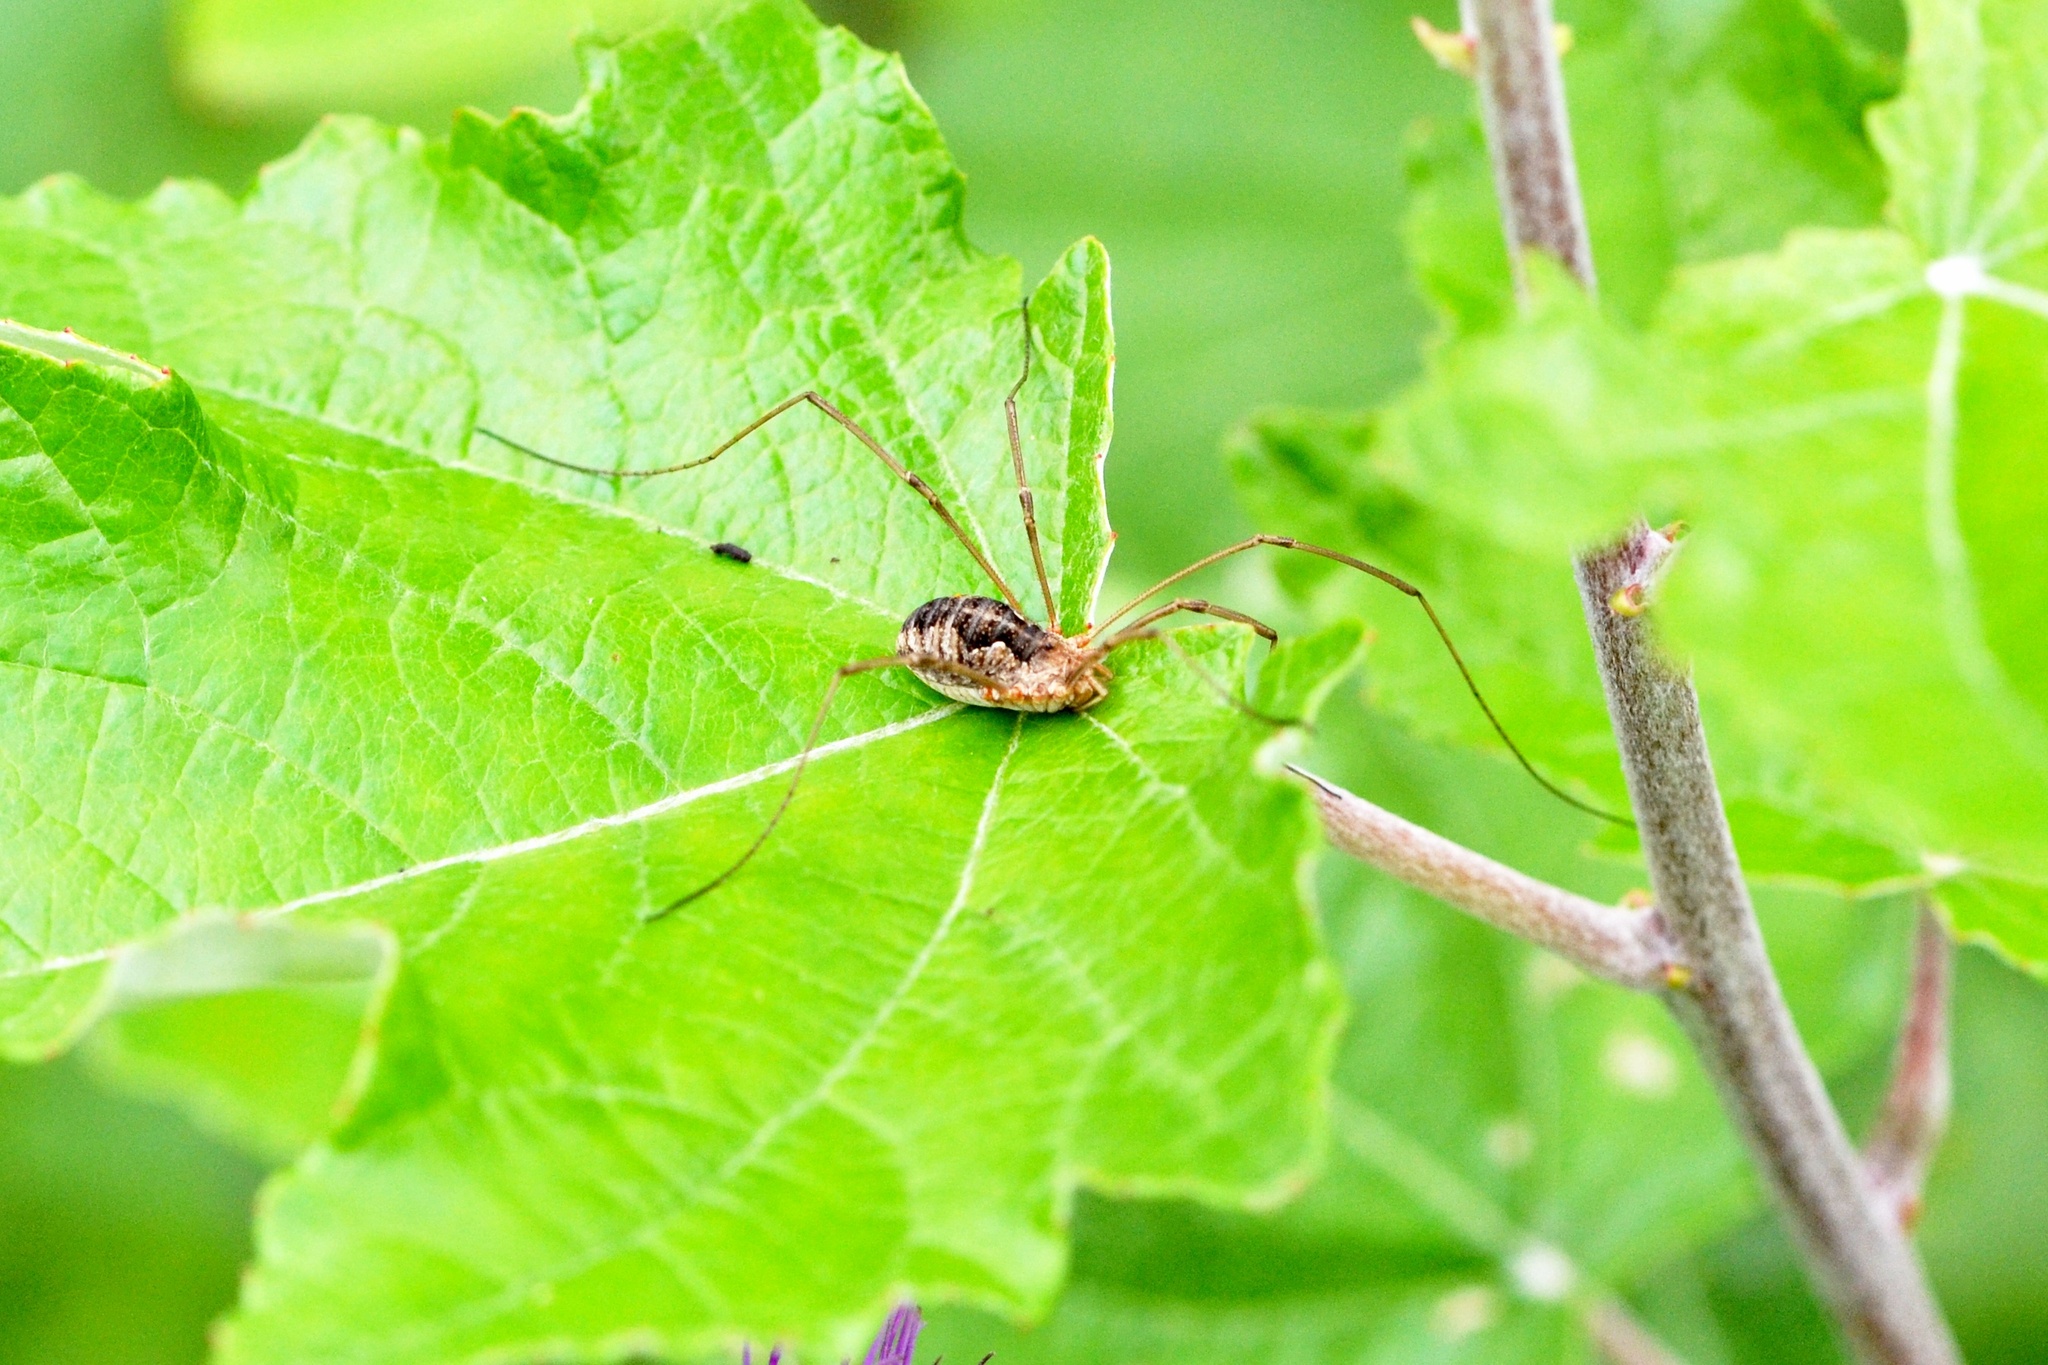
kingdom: Animalia
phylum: Arthropoda
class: Arachnida
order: Opiliones
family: Phalangiidae
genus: Phalangium
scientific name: Phalangium opilio
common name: Daddy longleg
